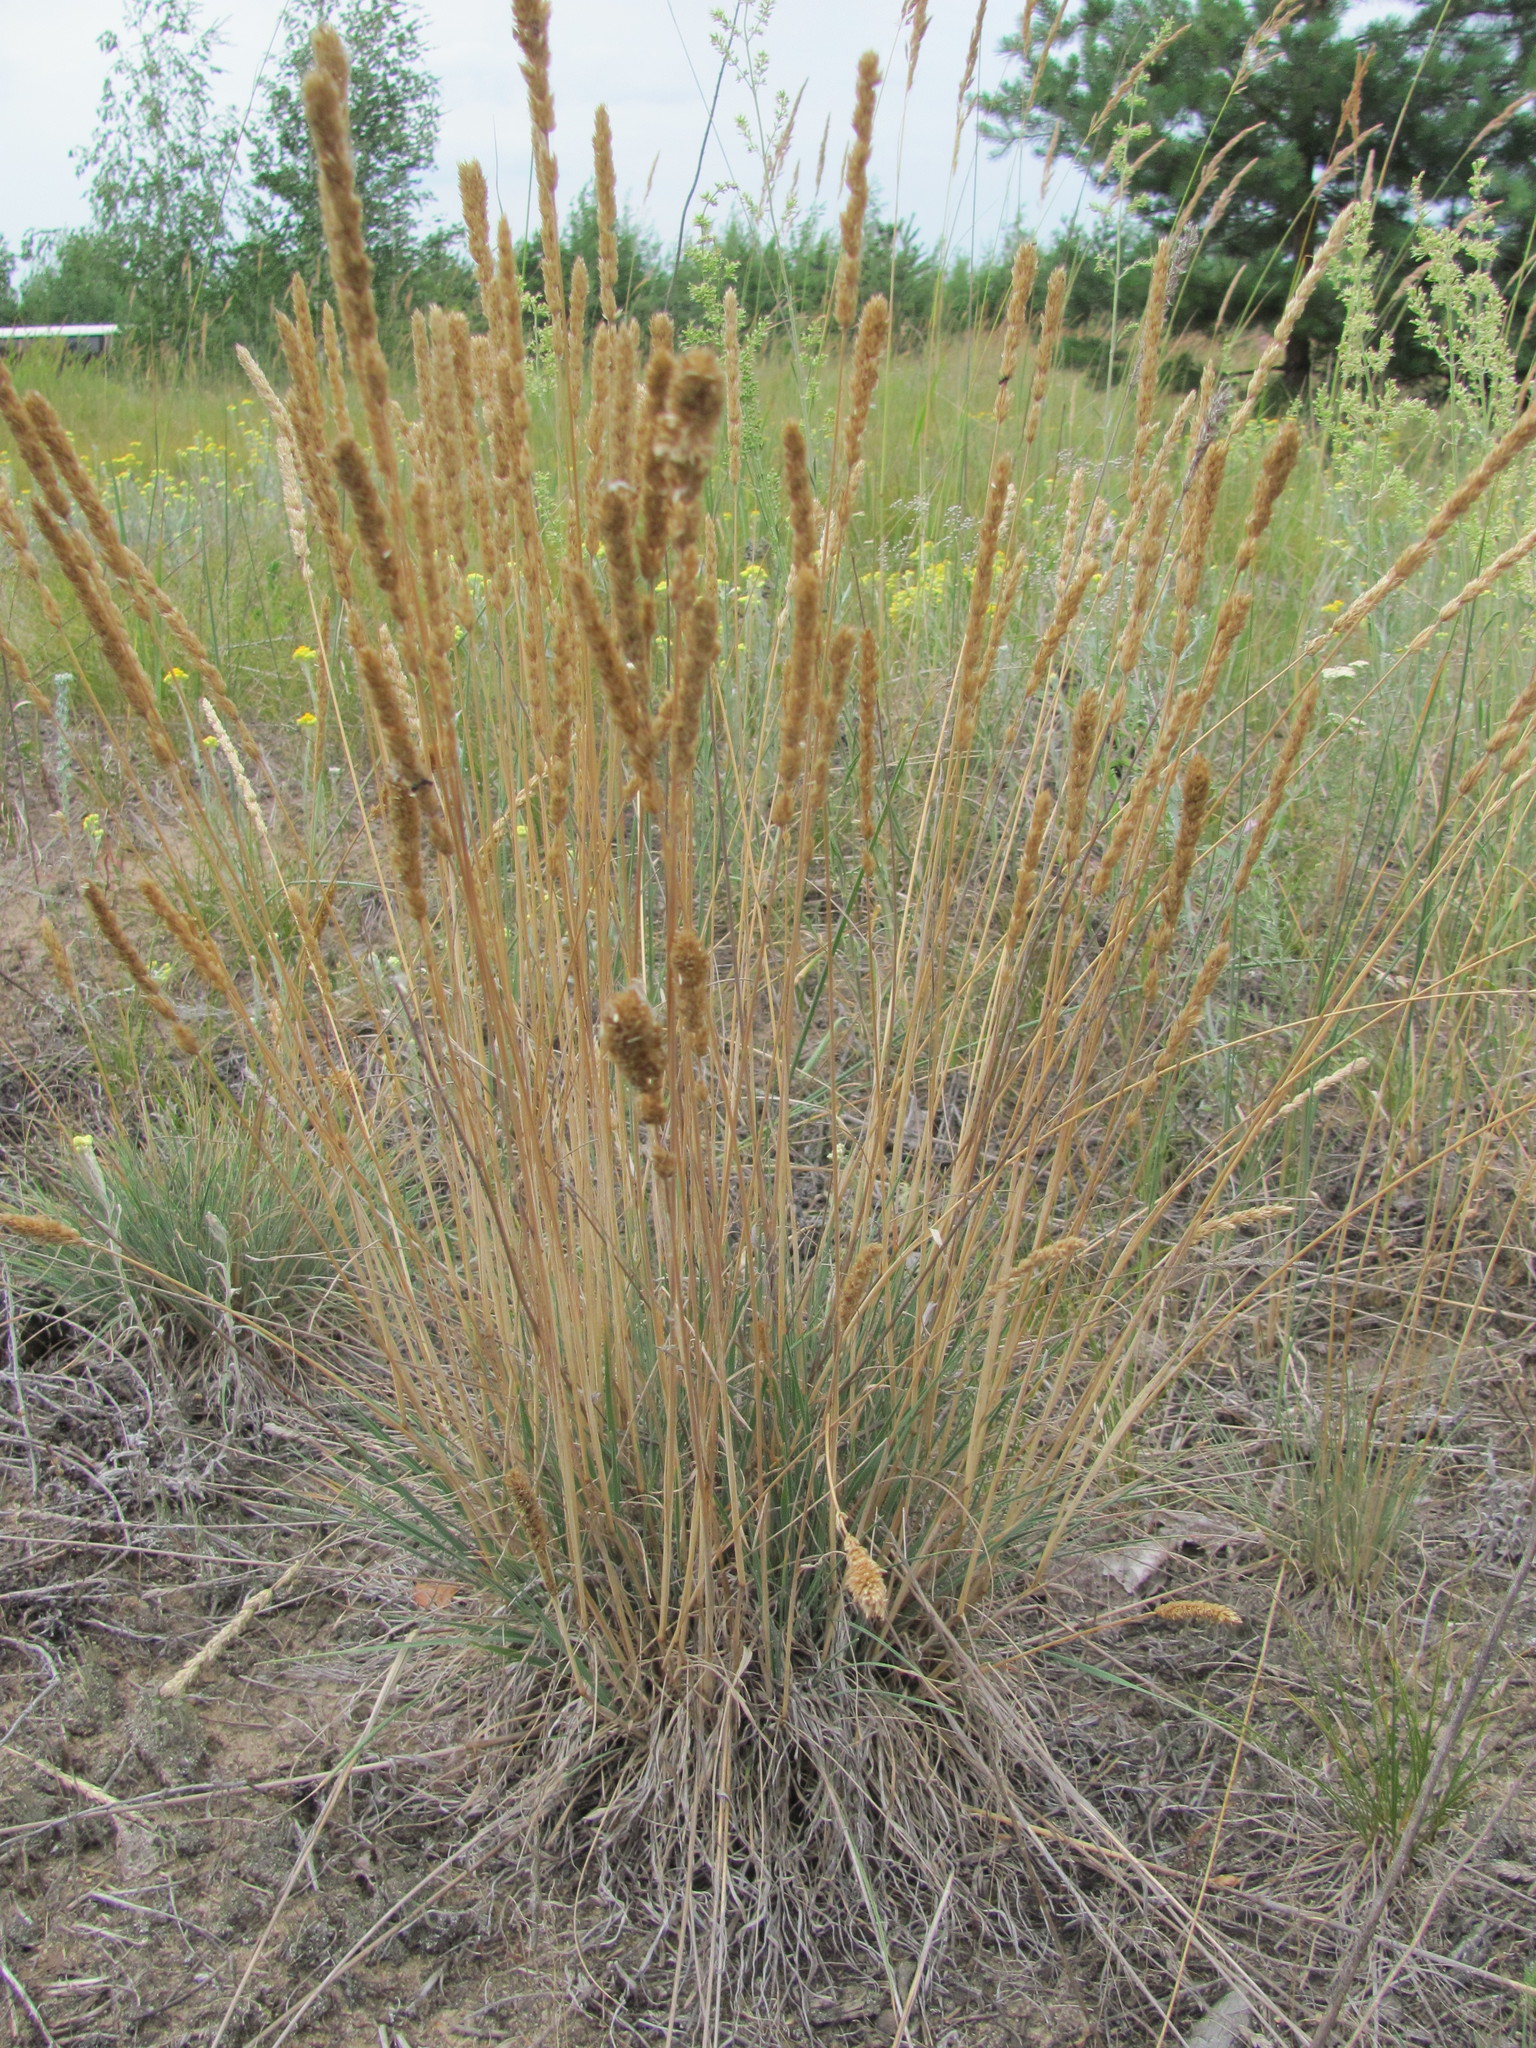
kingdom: Plantae
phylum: Tracheophyta
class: Liliopsida
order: Poales
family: Poaceae
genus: Koeleria
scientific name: Koeleria glauca
